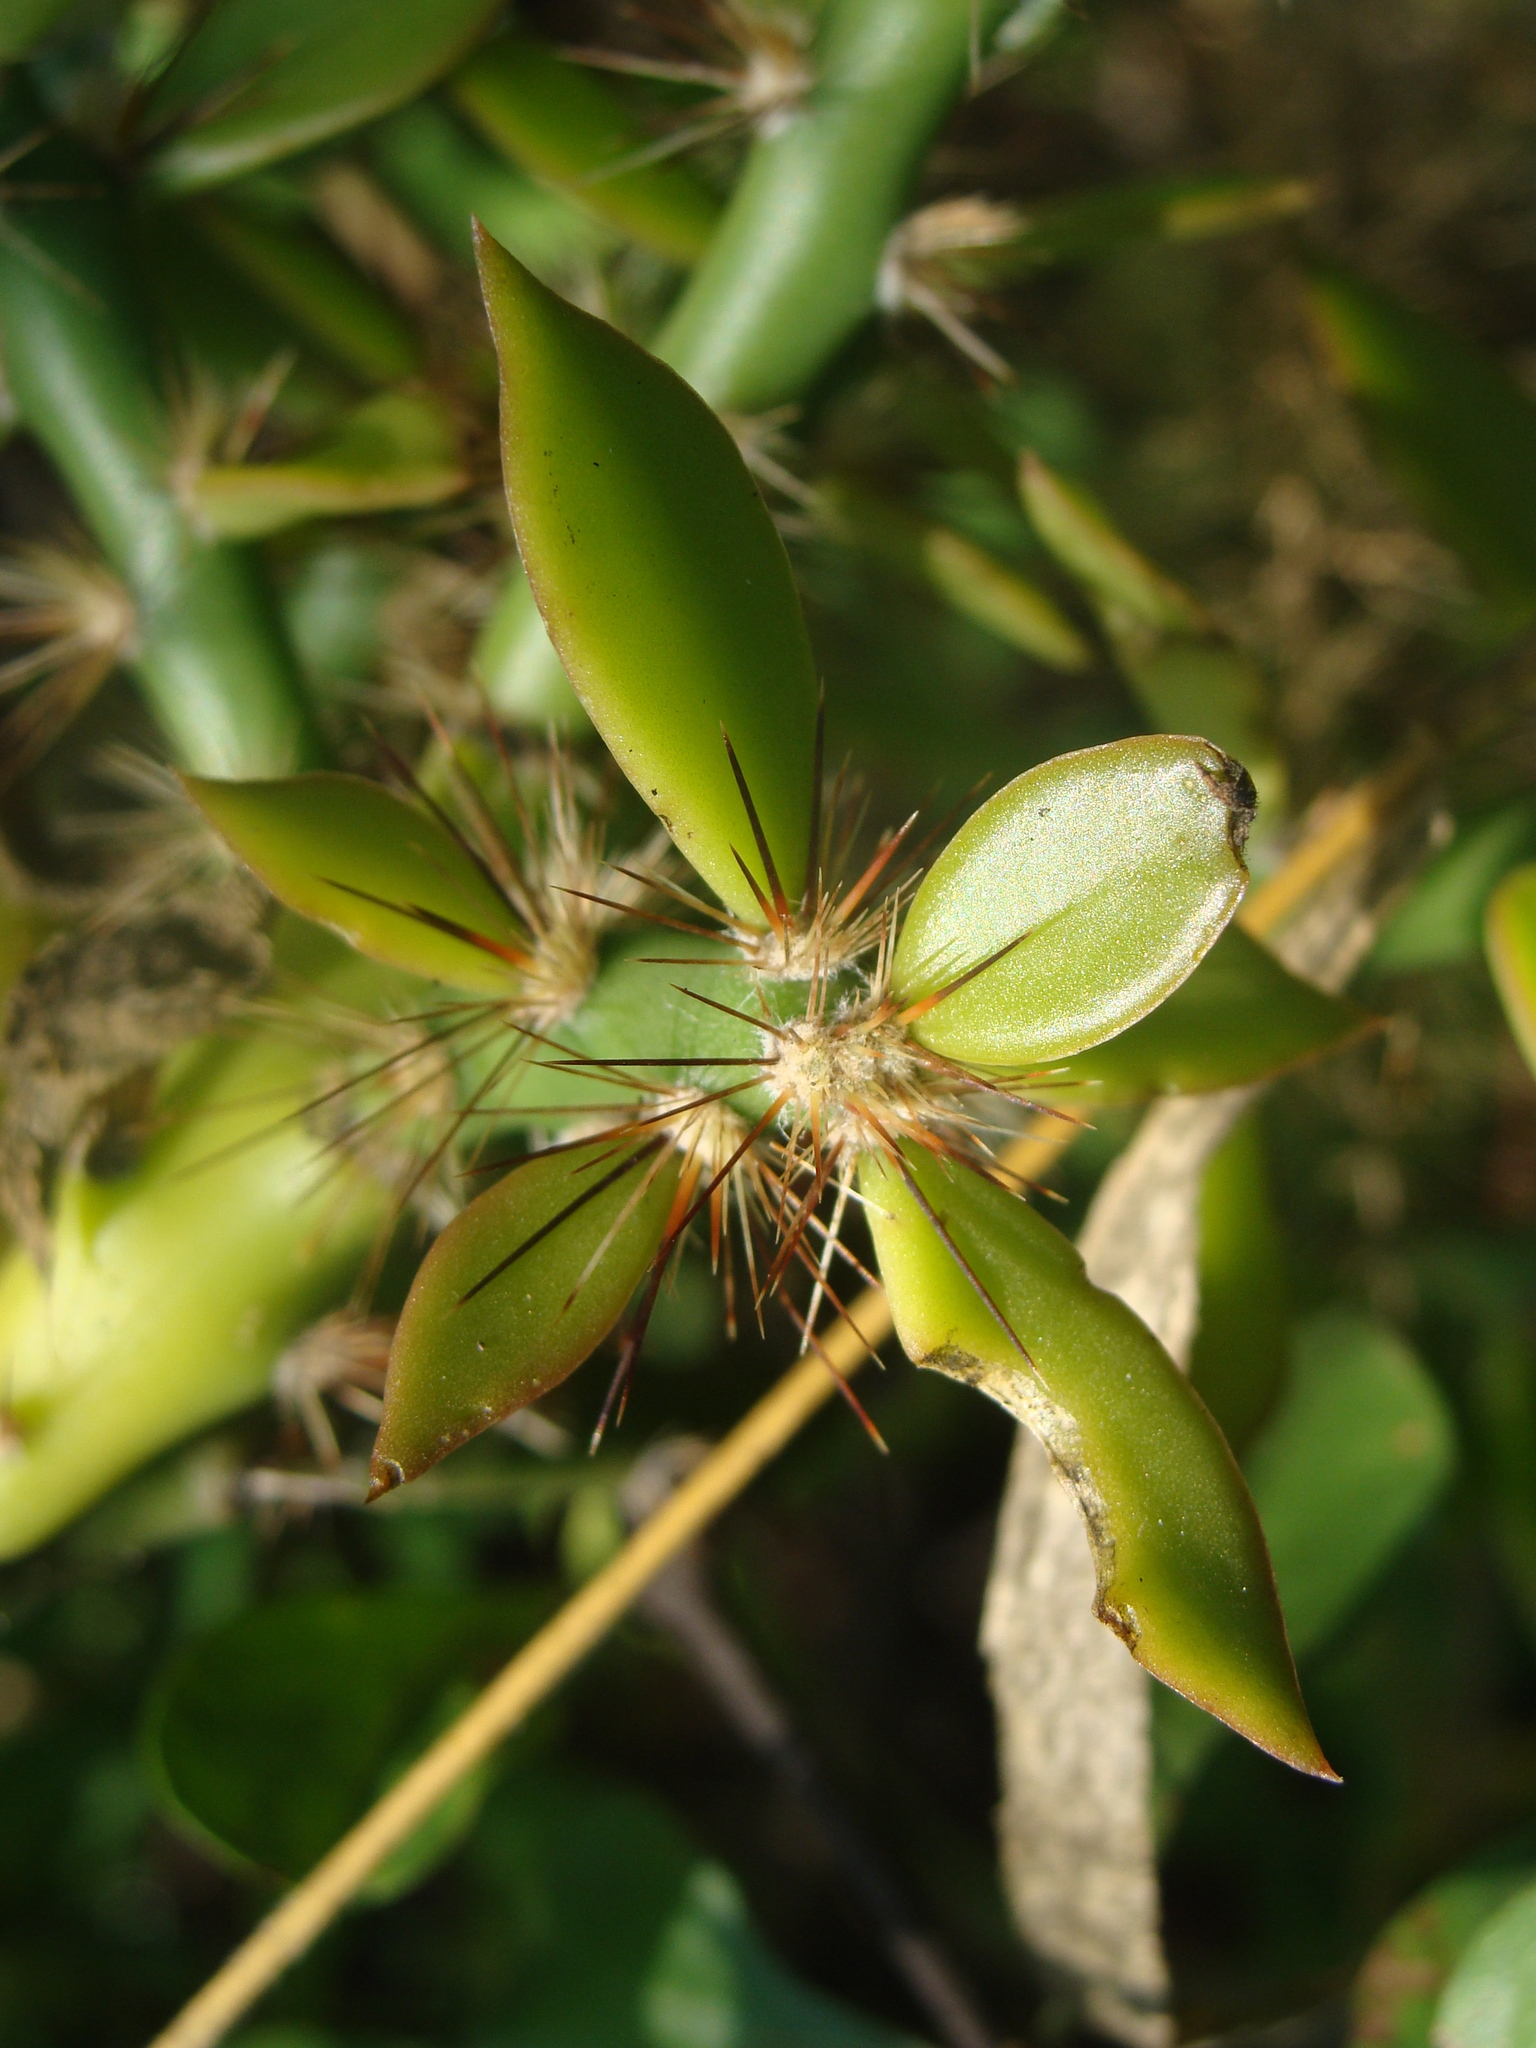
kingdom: Plantae
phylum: Tracheophyta
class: Magnoliopsida
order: Caryophyllales
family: Cactaceae
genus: Pereskiopsis
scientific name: Pereskiopsis porteri
